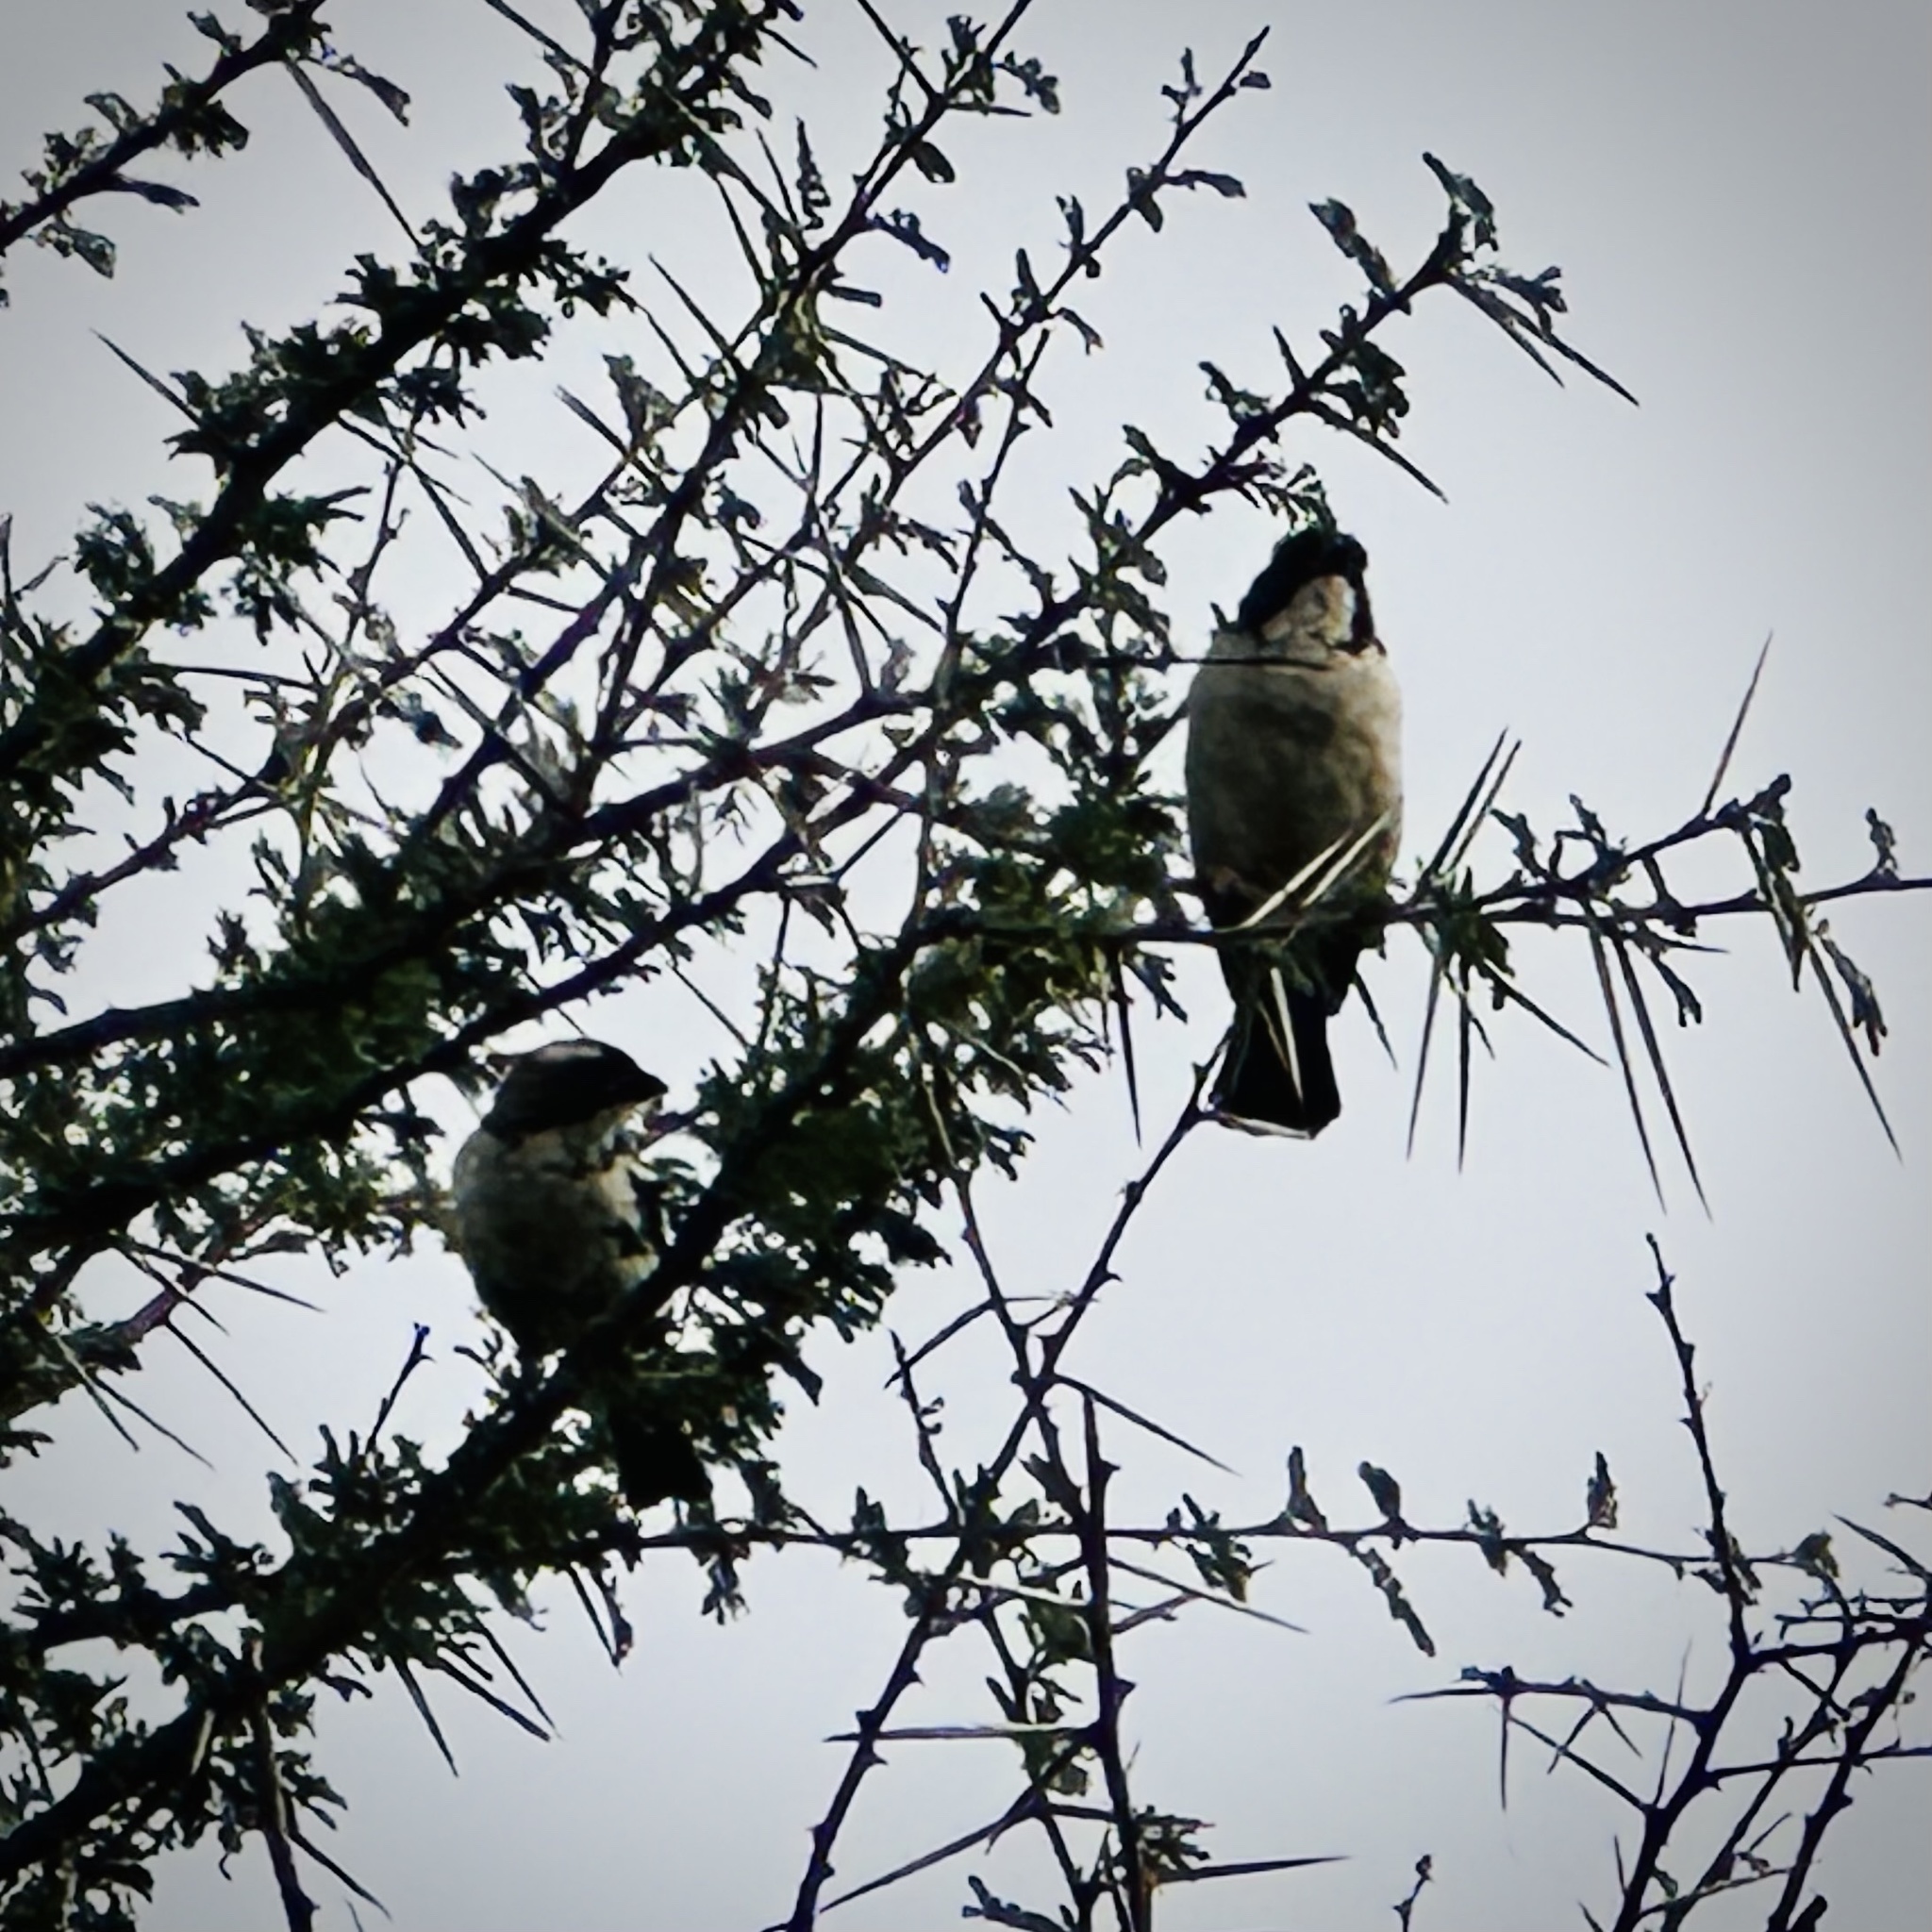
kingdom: Animalia
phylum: Chordata
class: Aves
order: Passeriformes
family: Passeridae
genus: Plocepasser
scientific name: Plocepasser mahali
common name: White-browed sparrow-weaver
